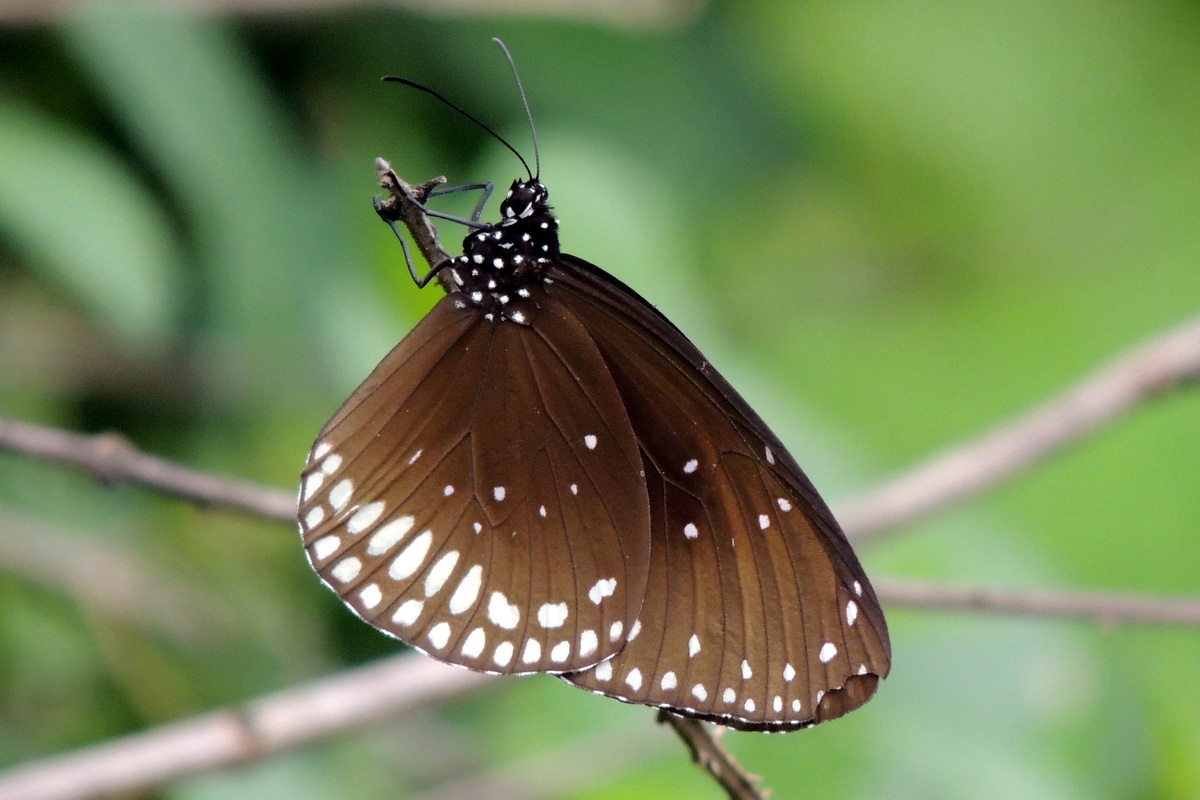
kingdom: Animalia
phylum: Arthropoda
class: Insecta
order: Lepidoptera
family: Nymphalidae
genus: Euploea
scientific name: Euploea sylvester
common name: Double-branded crow butterfly
